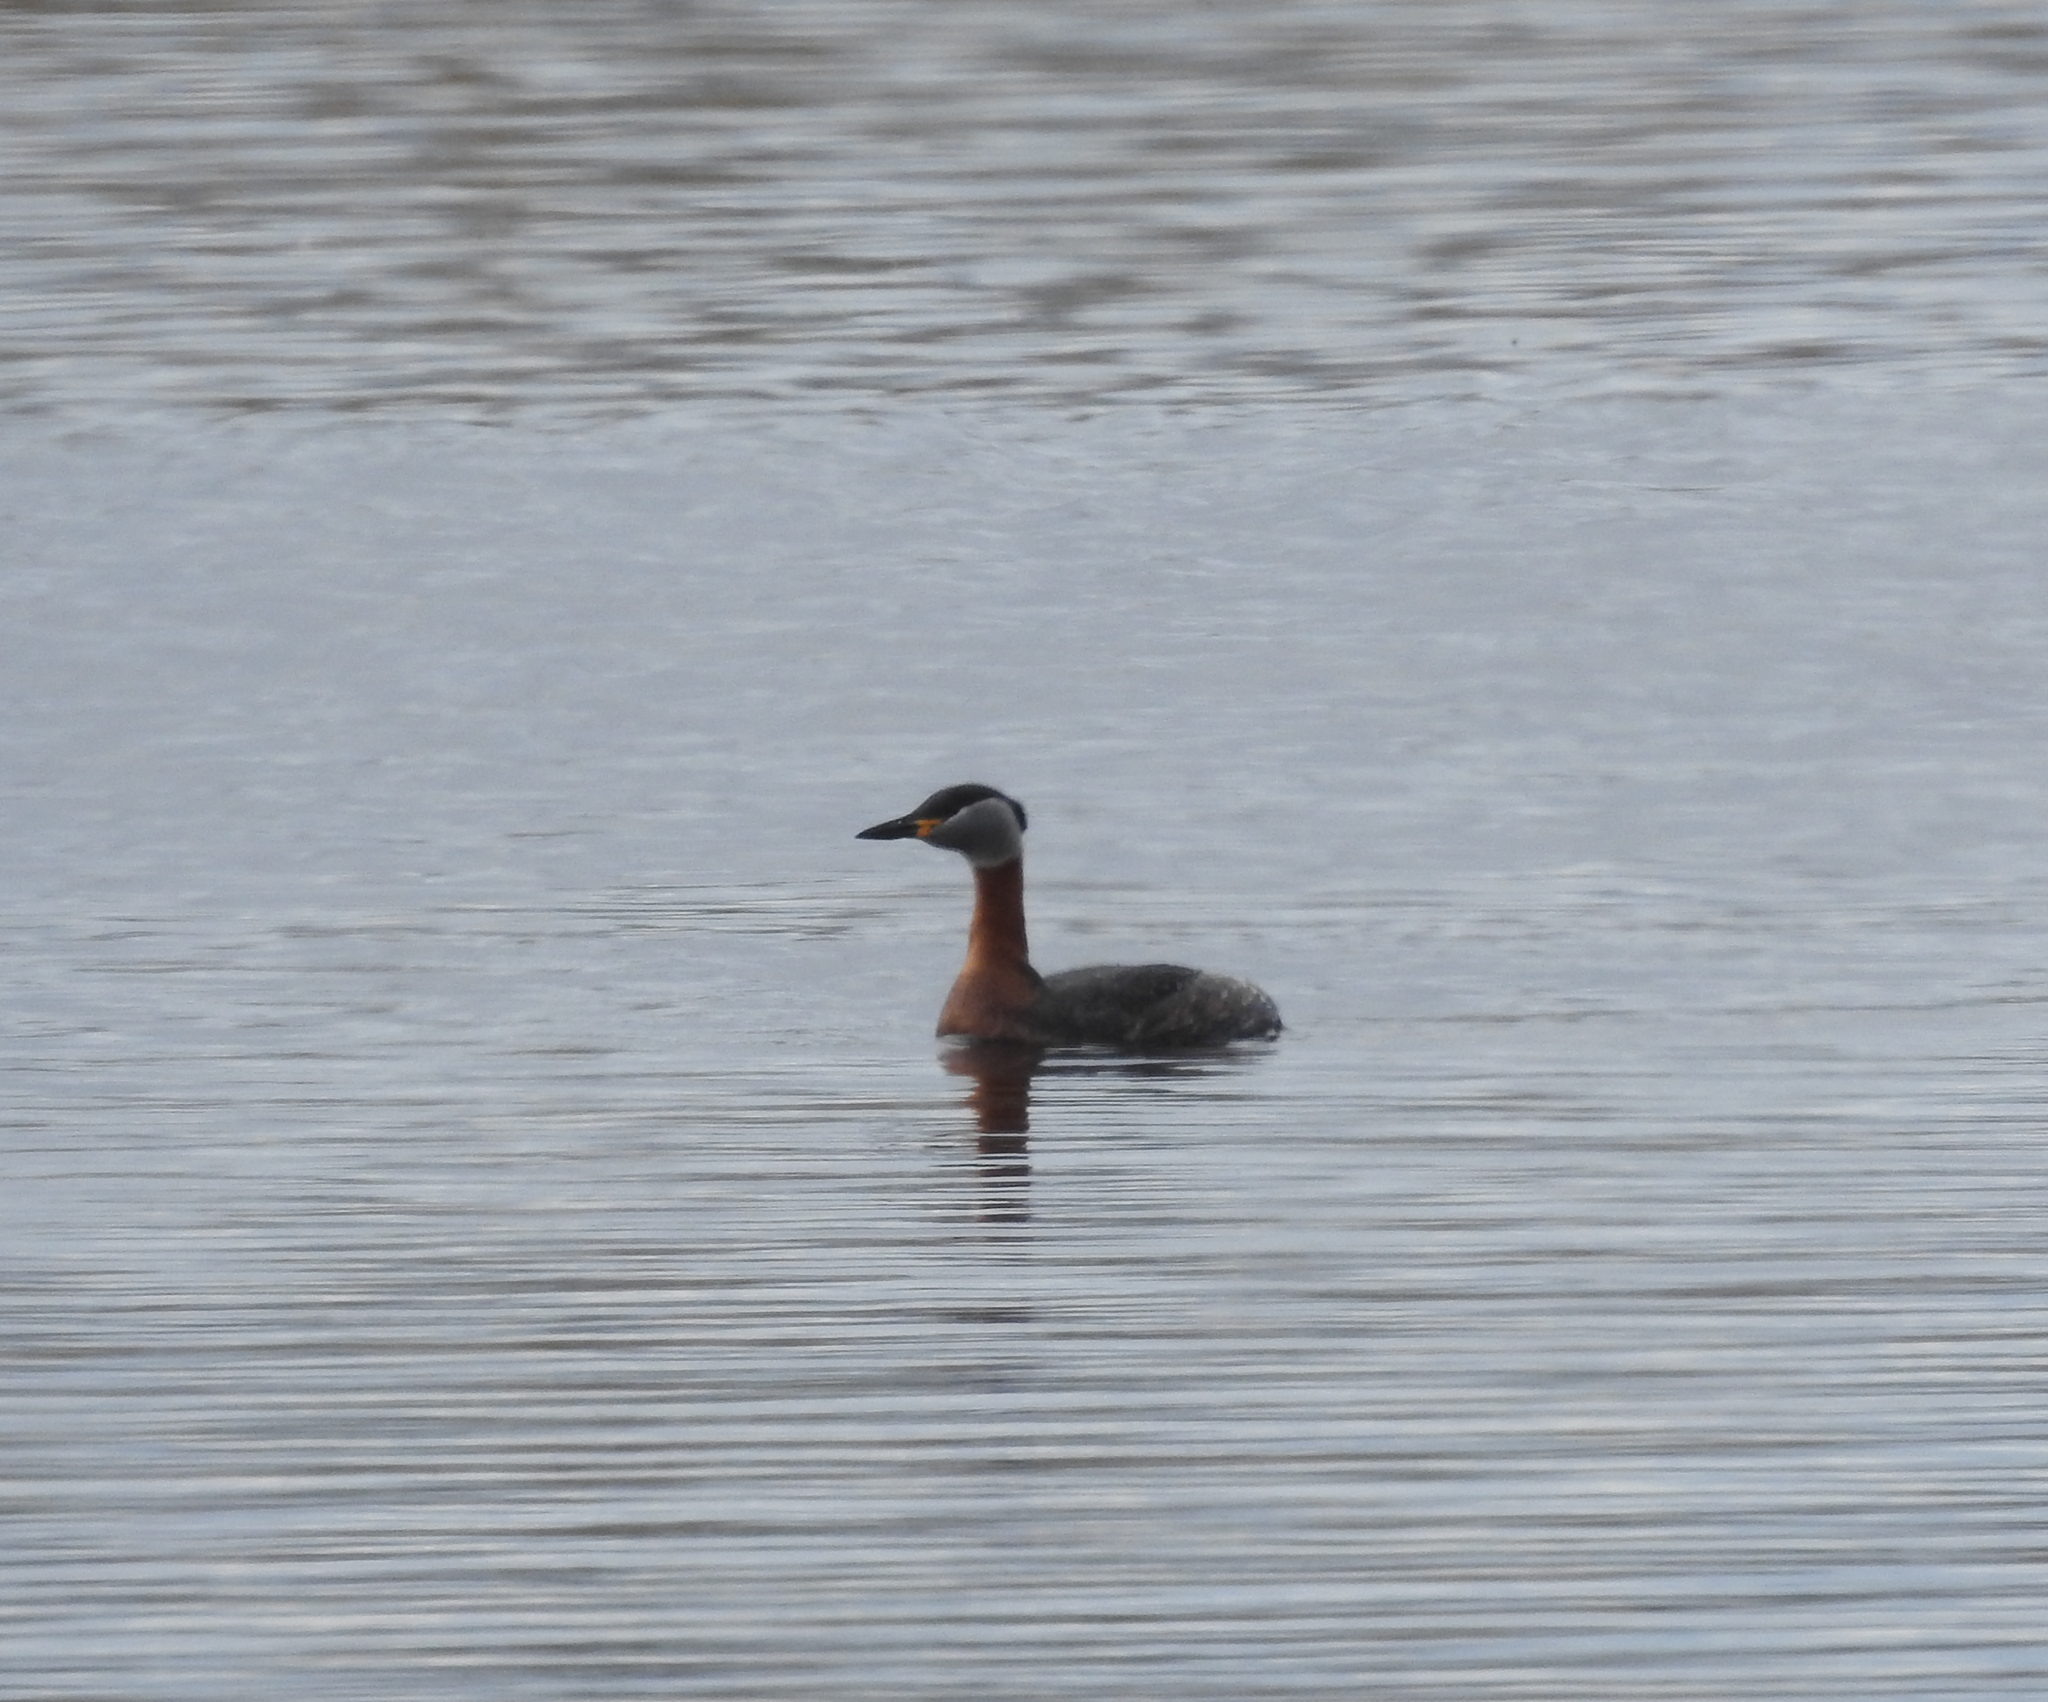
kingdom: Animalia
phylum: Chordata
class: Aves
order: Podicipediformes
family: Podicipedidae
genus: Podiceps
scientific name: Podiceps grisegena
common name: Red-necked grebe
